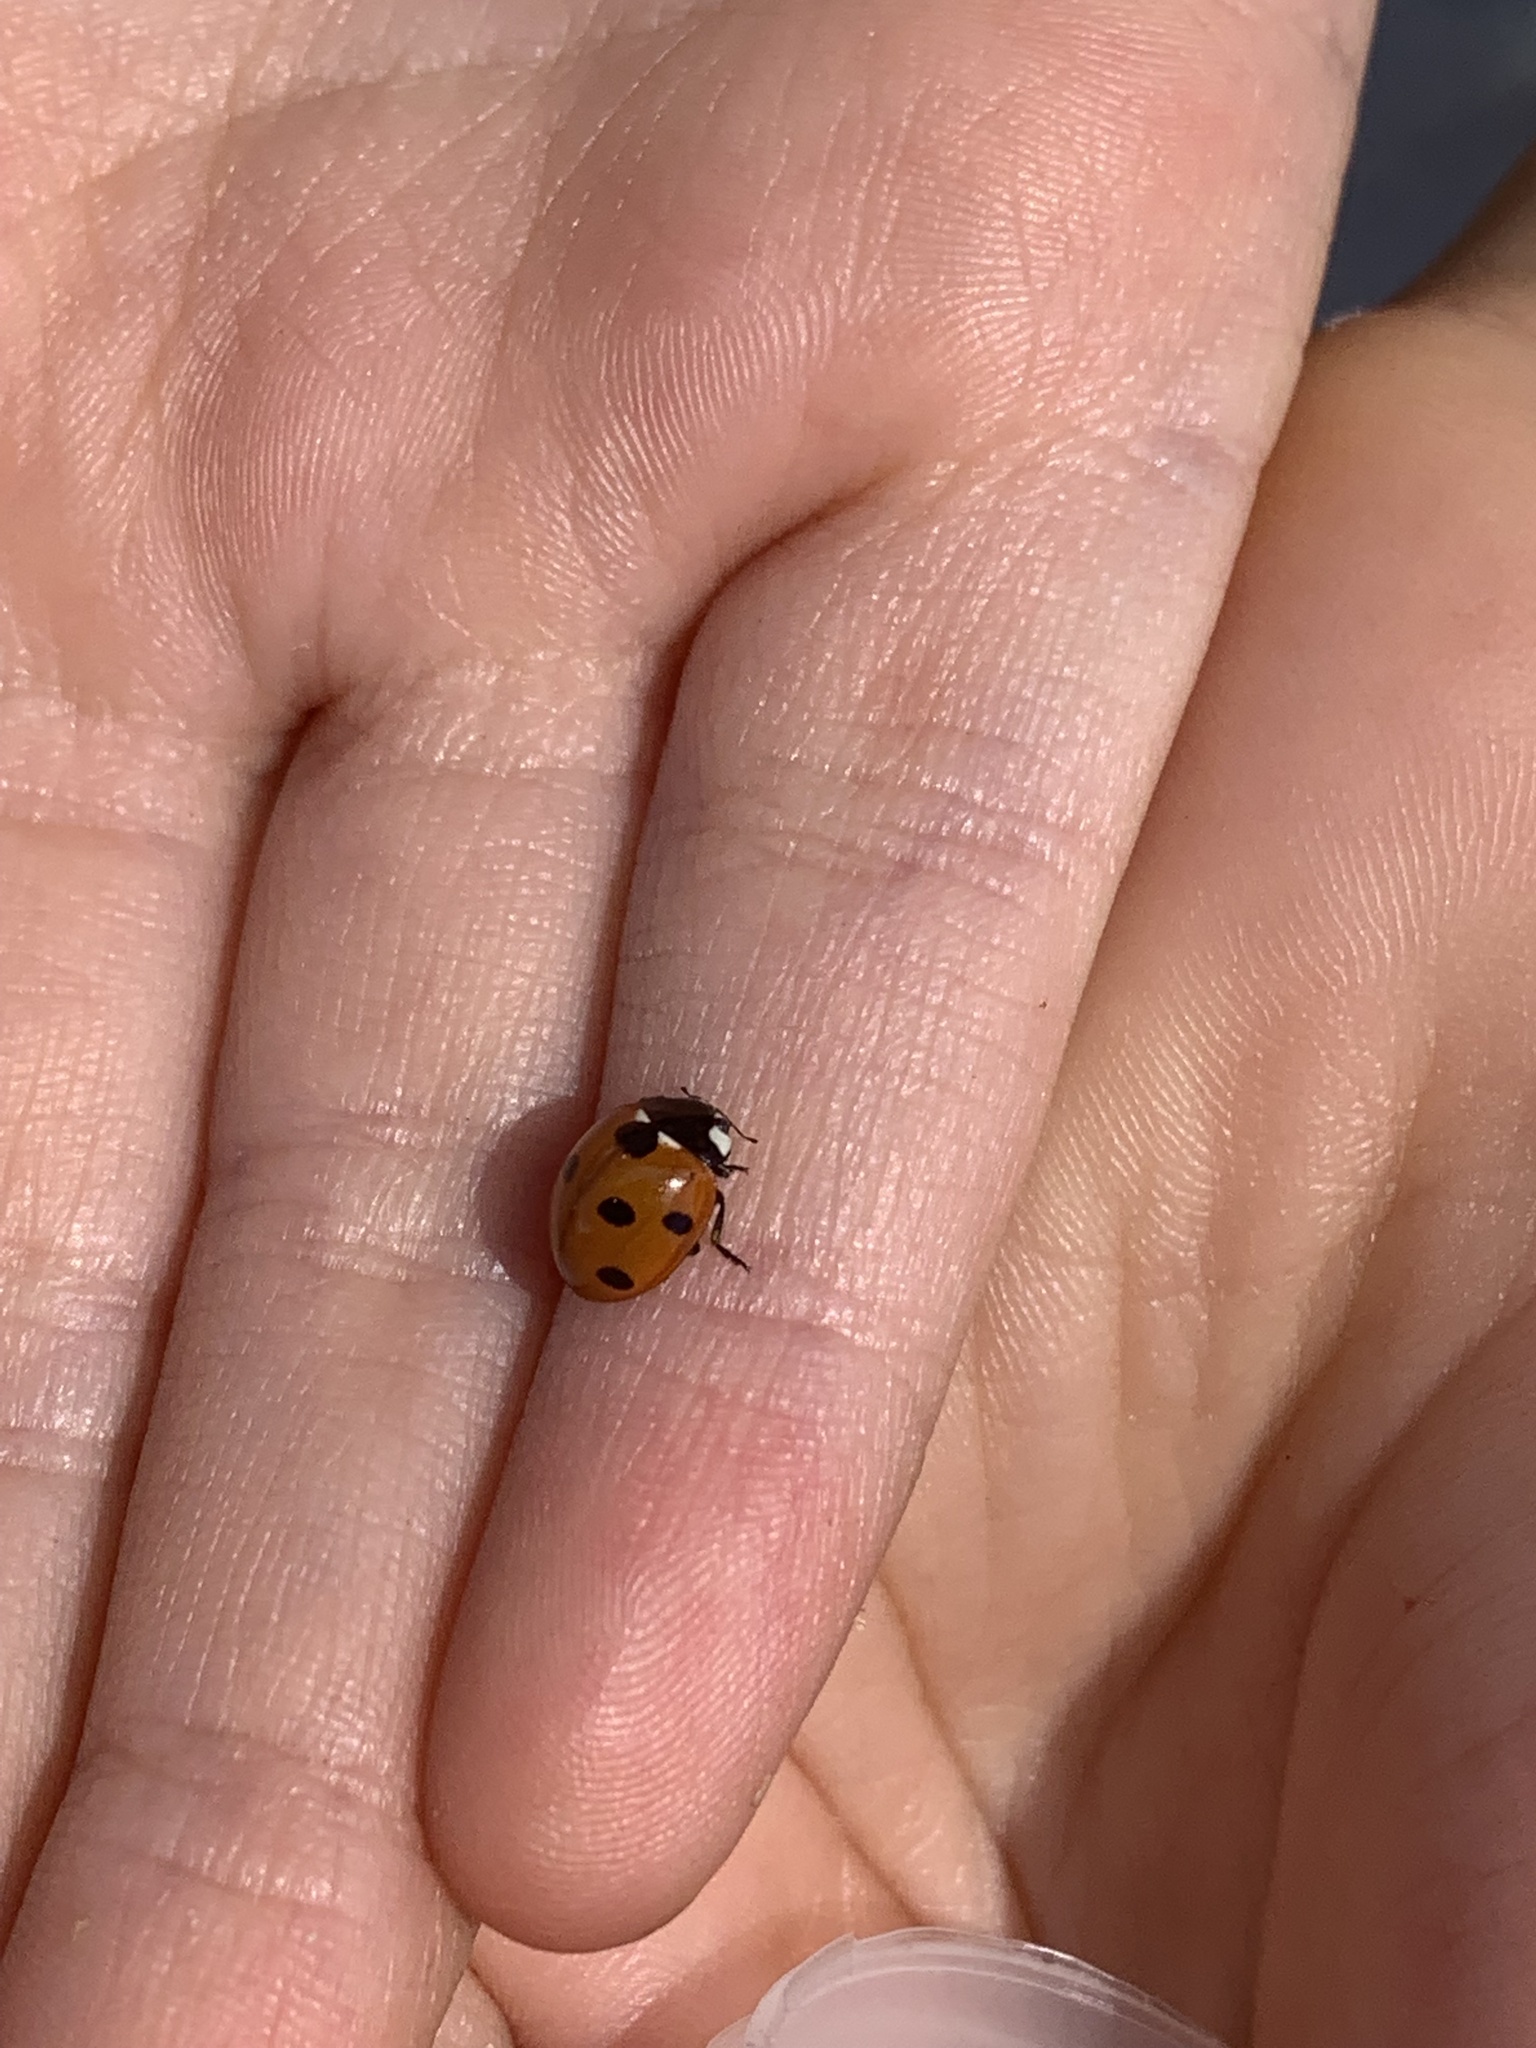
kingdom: Animalia
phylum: Arthropoda
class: Insecta
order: Coleoptera
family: Coccinellidae
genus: Coccinella
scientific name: Coccinella septempunctata
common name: Sevenspotted lady beetle
